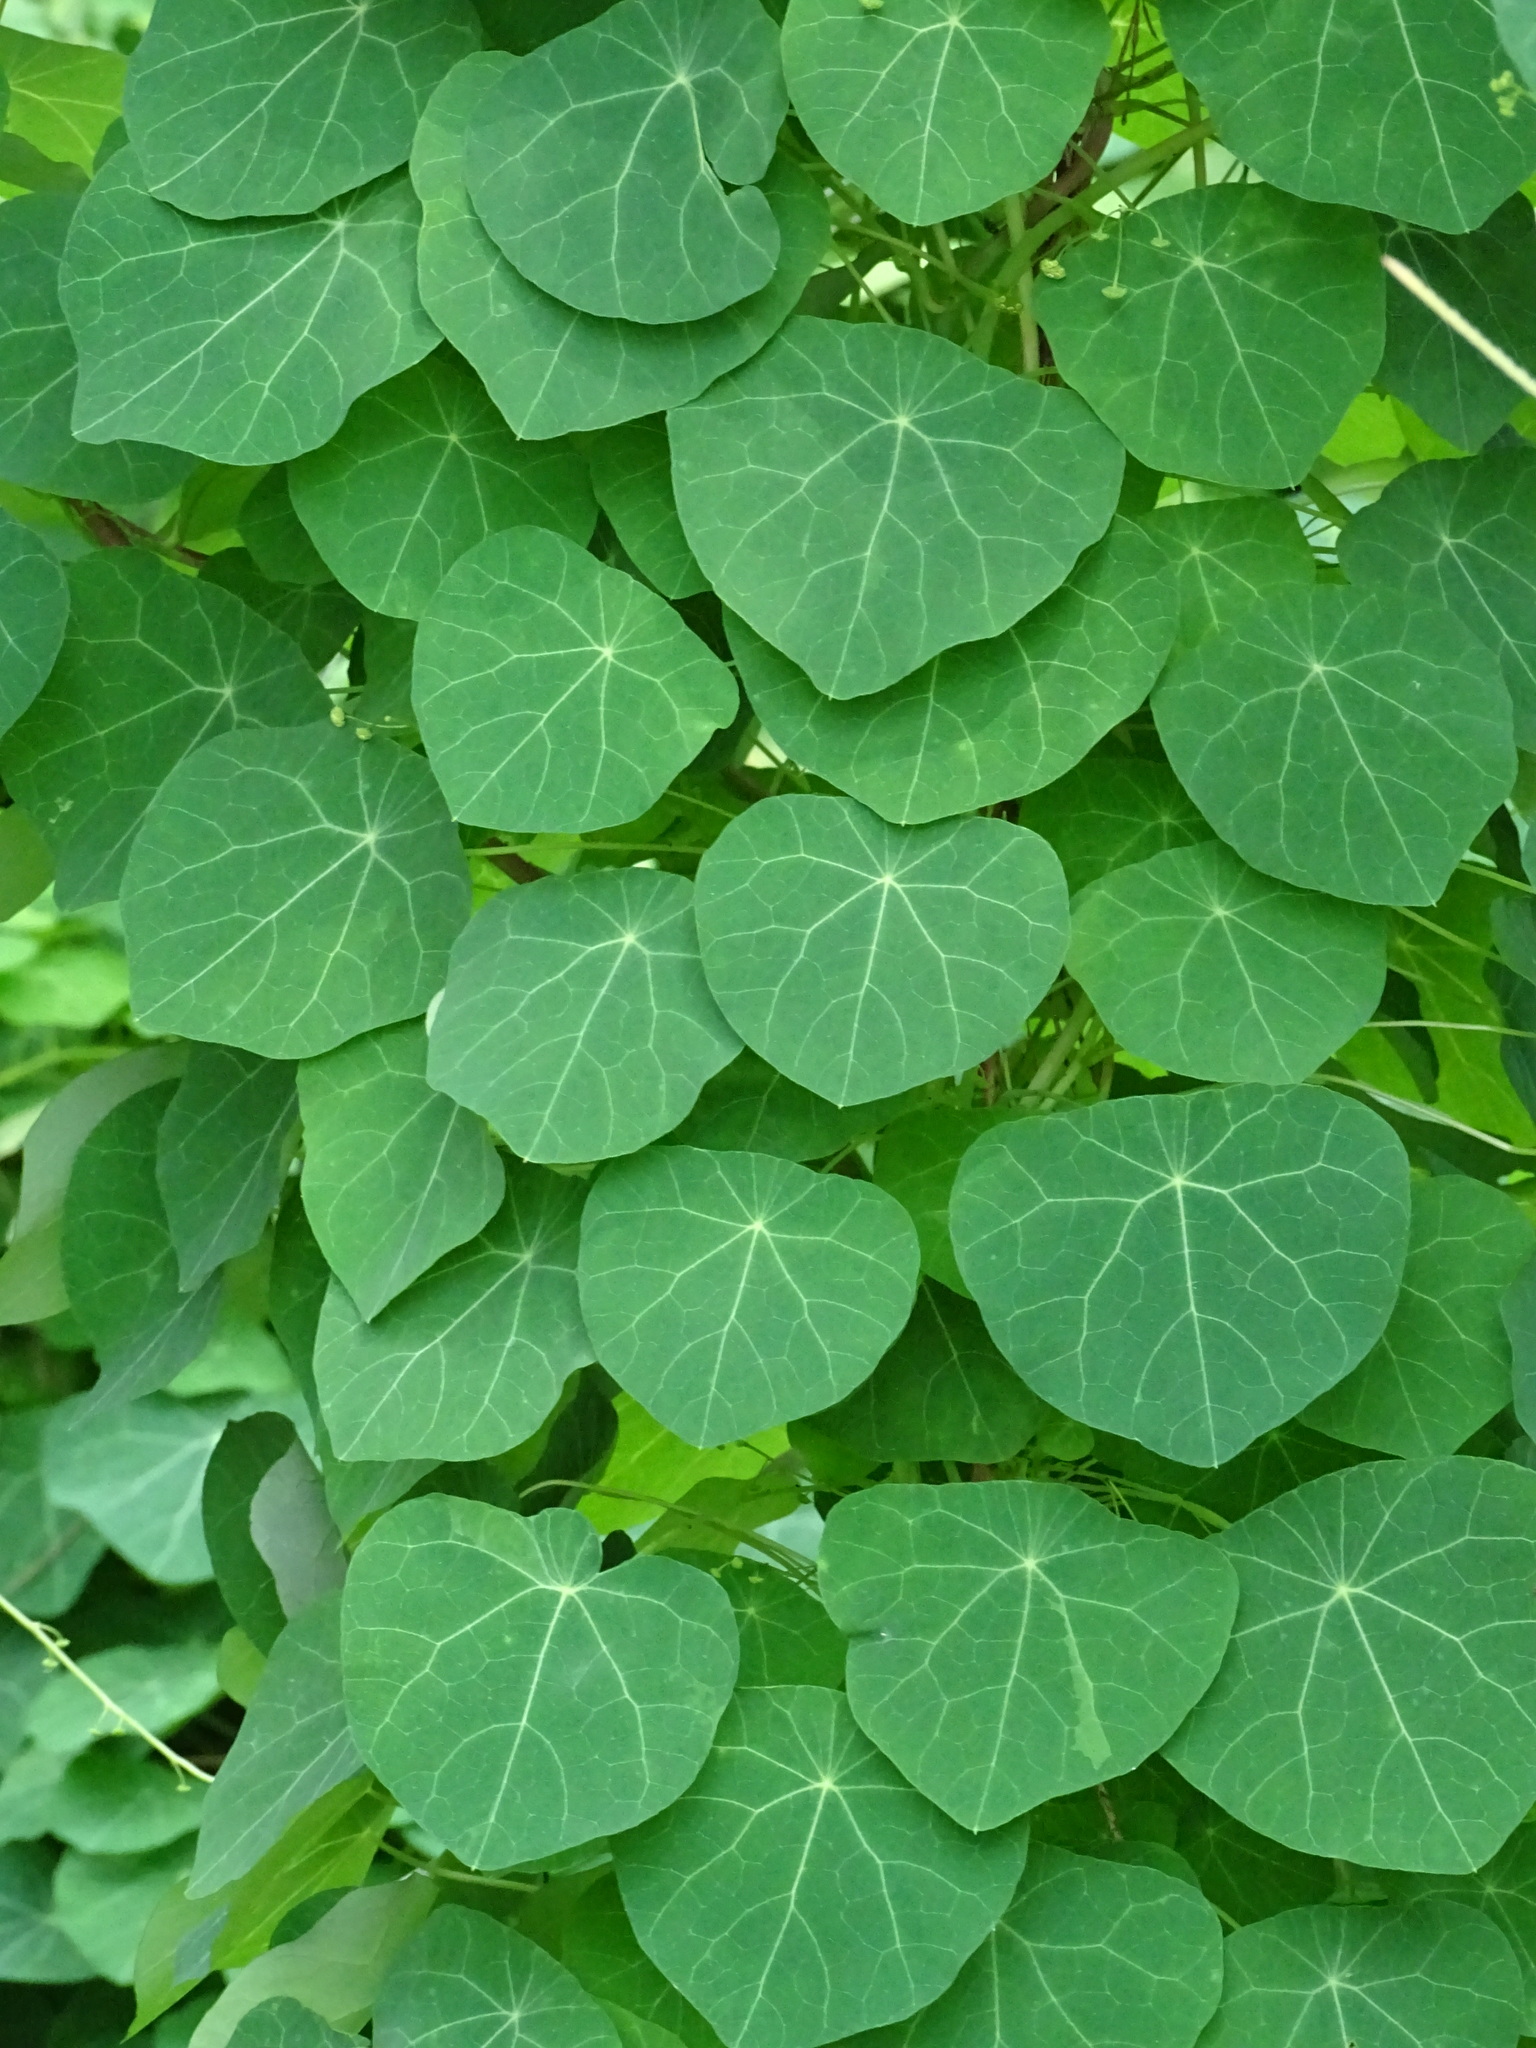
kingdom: Plantae
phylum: Tracheophyta
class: Magnoliopsida
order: Ranunculales
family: Menispermaceae
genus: Stephania
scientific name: Stephania cephalantha
